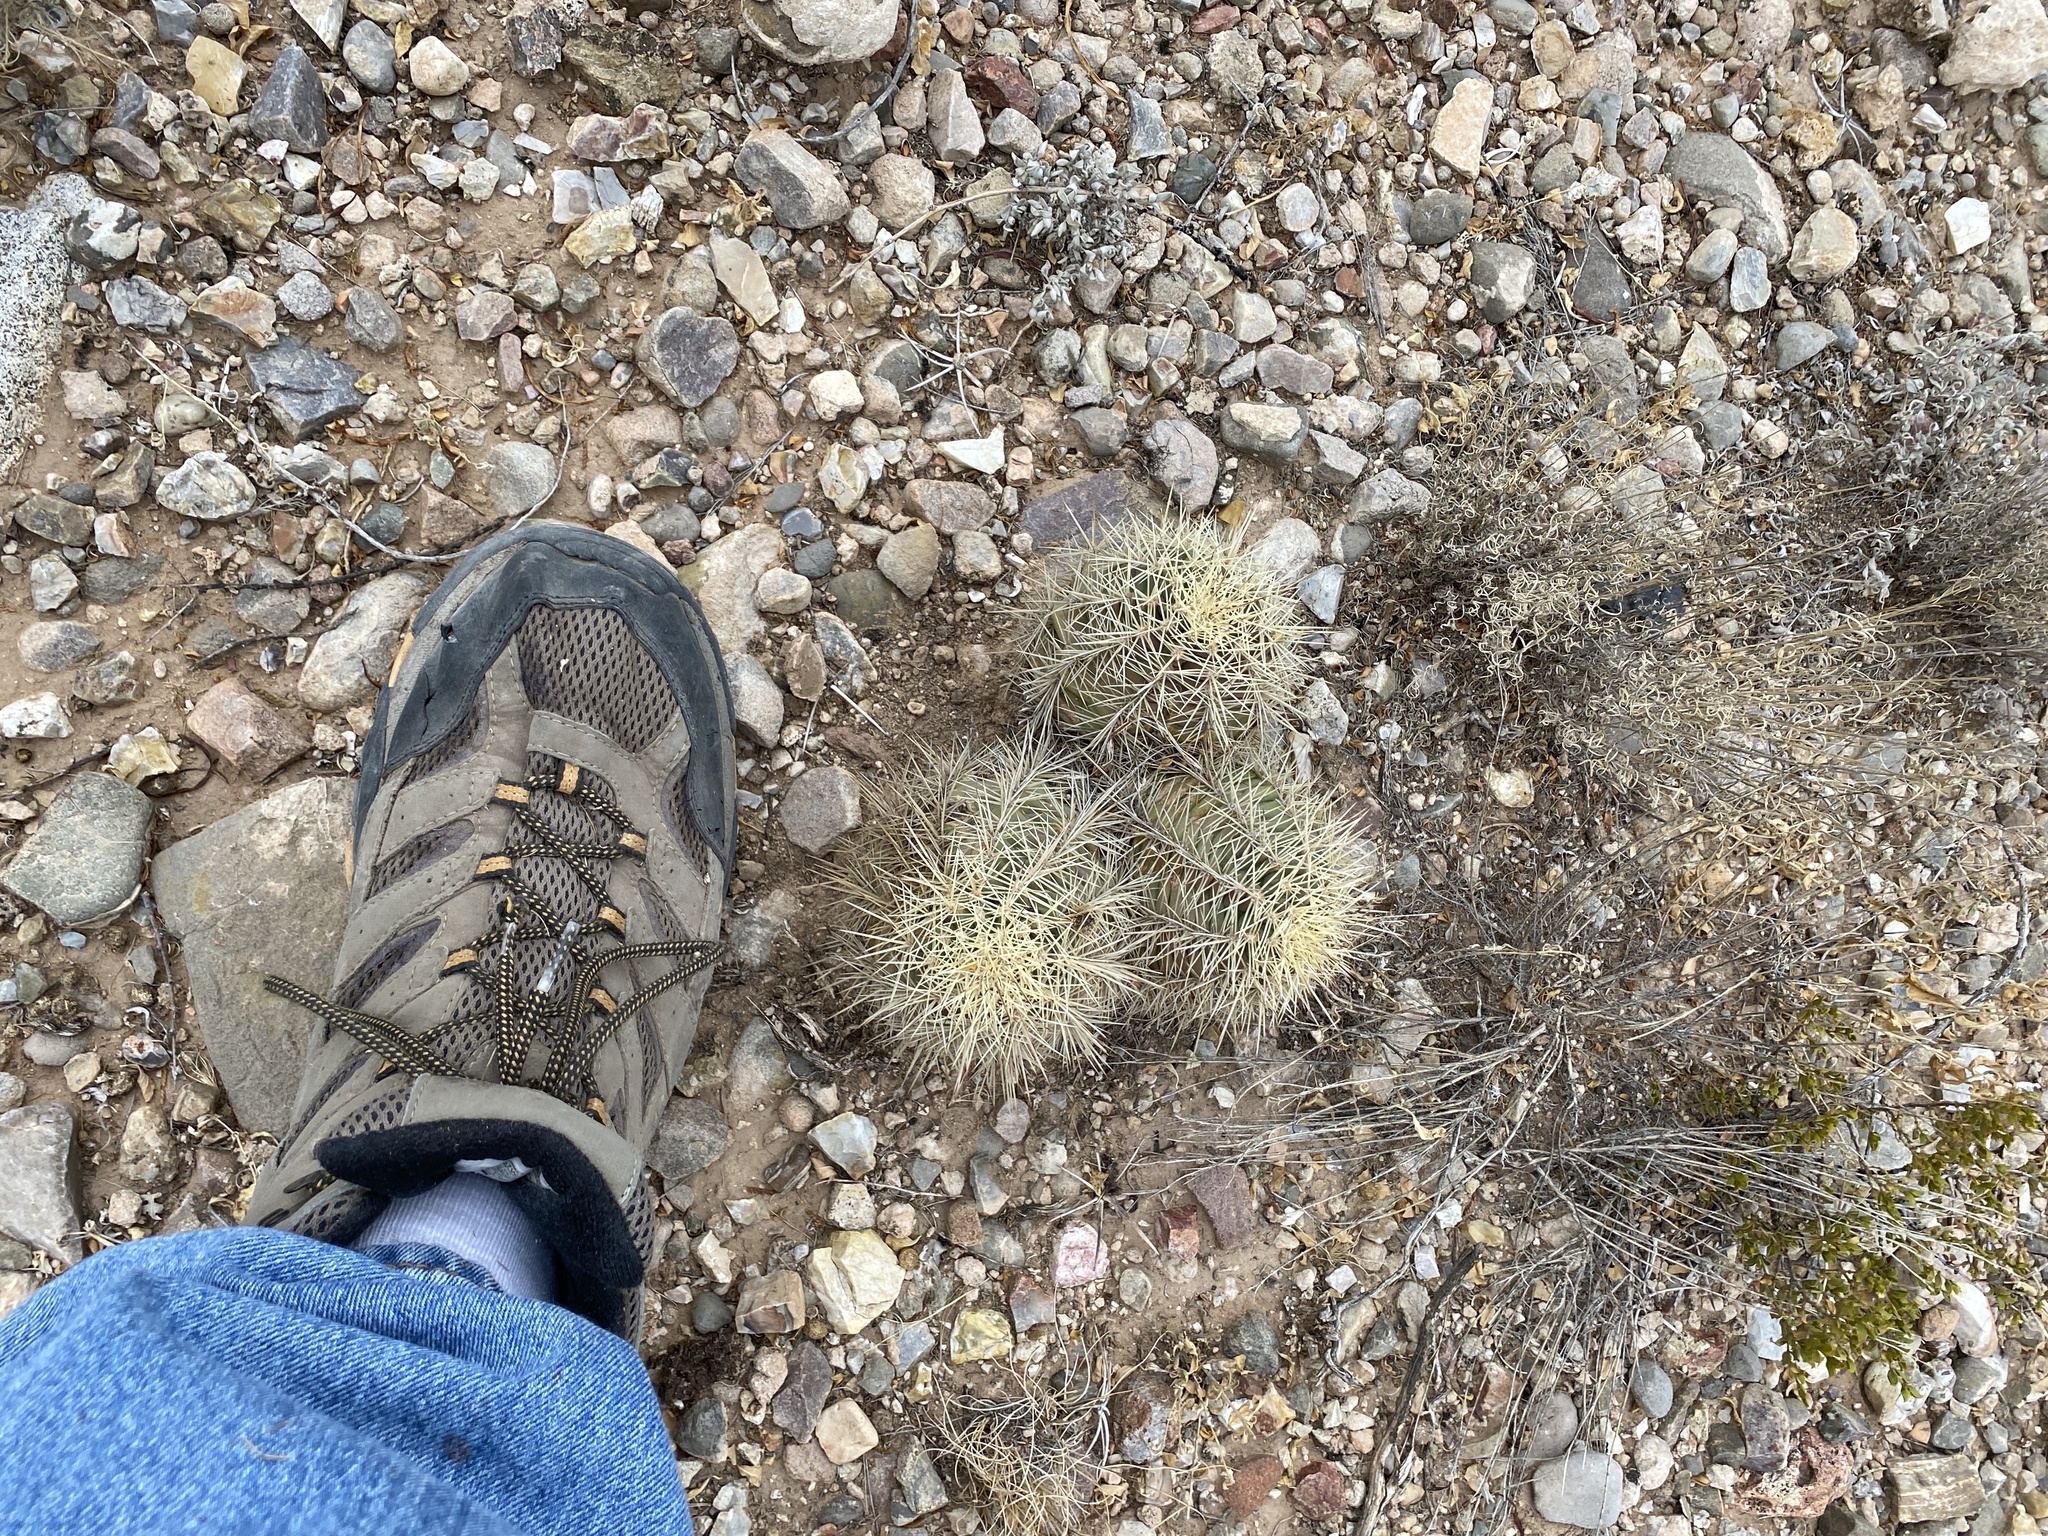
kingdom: Plantae
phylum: Tracheophyta
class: Magnoliopsida
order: Caryophyllales
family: Cactaceae
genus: Echinocereus
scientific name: Echinocereus coccineus
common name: Scarlet hedgehog cactus
